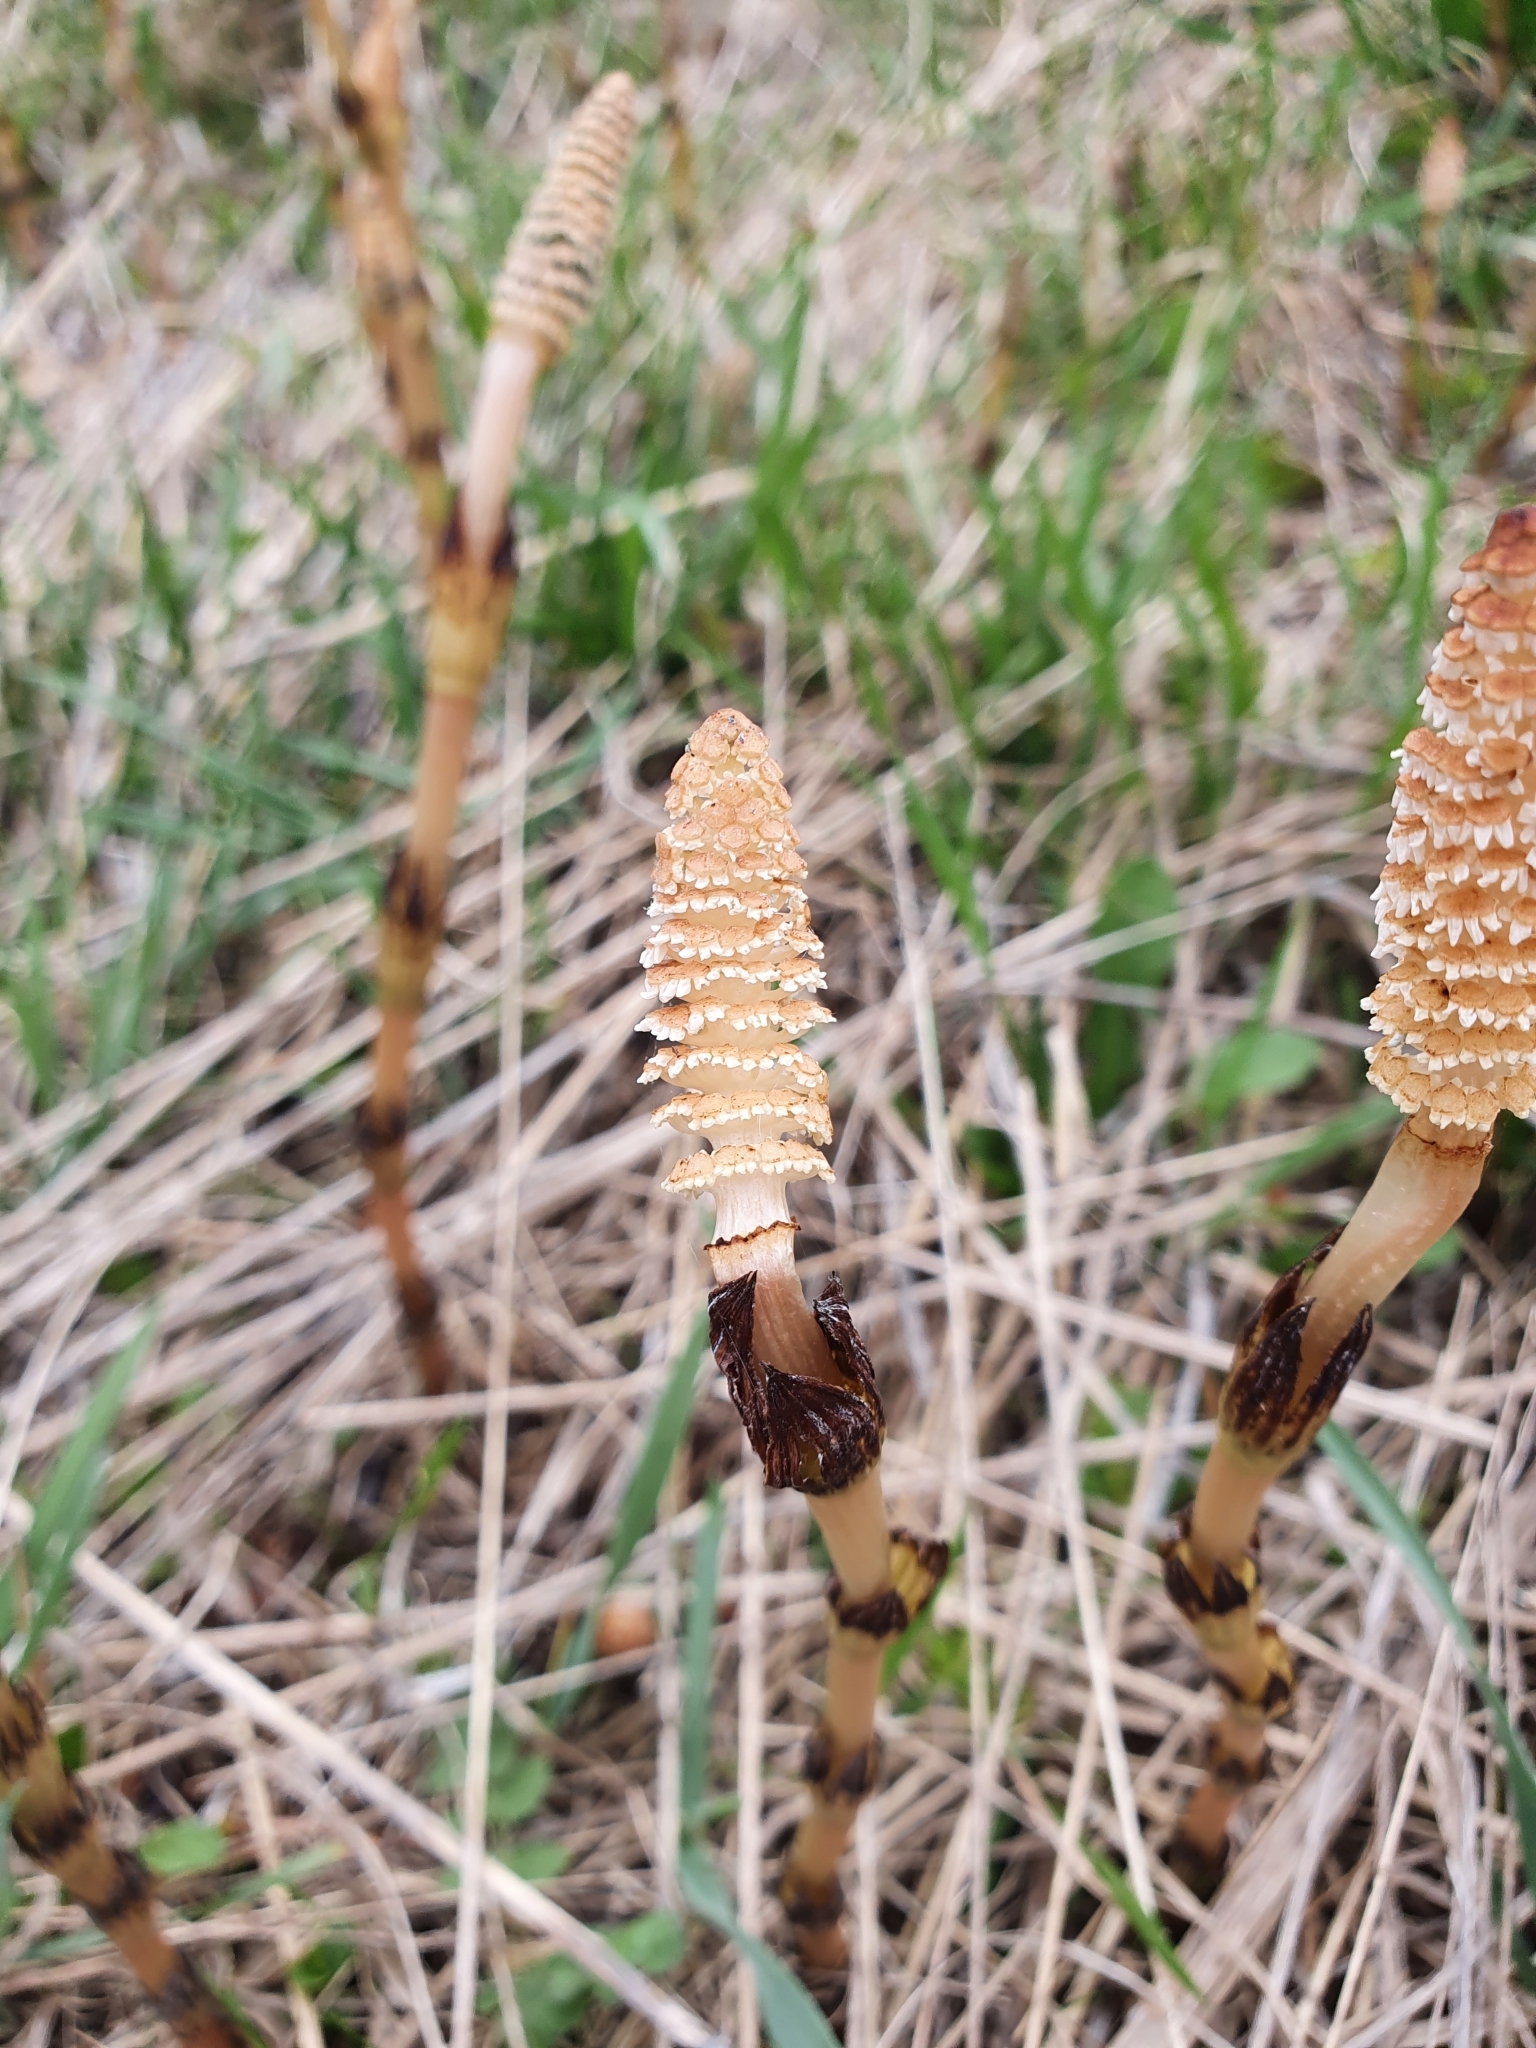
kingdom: Plantae
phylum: Tracheophyta
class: Polypodiopsida
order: Equisetales
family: Equisetaceae
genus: Equisetum
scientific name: Equisetum arvense
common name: Field horsetail
